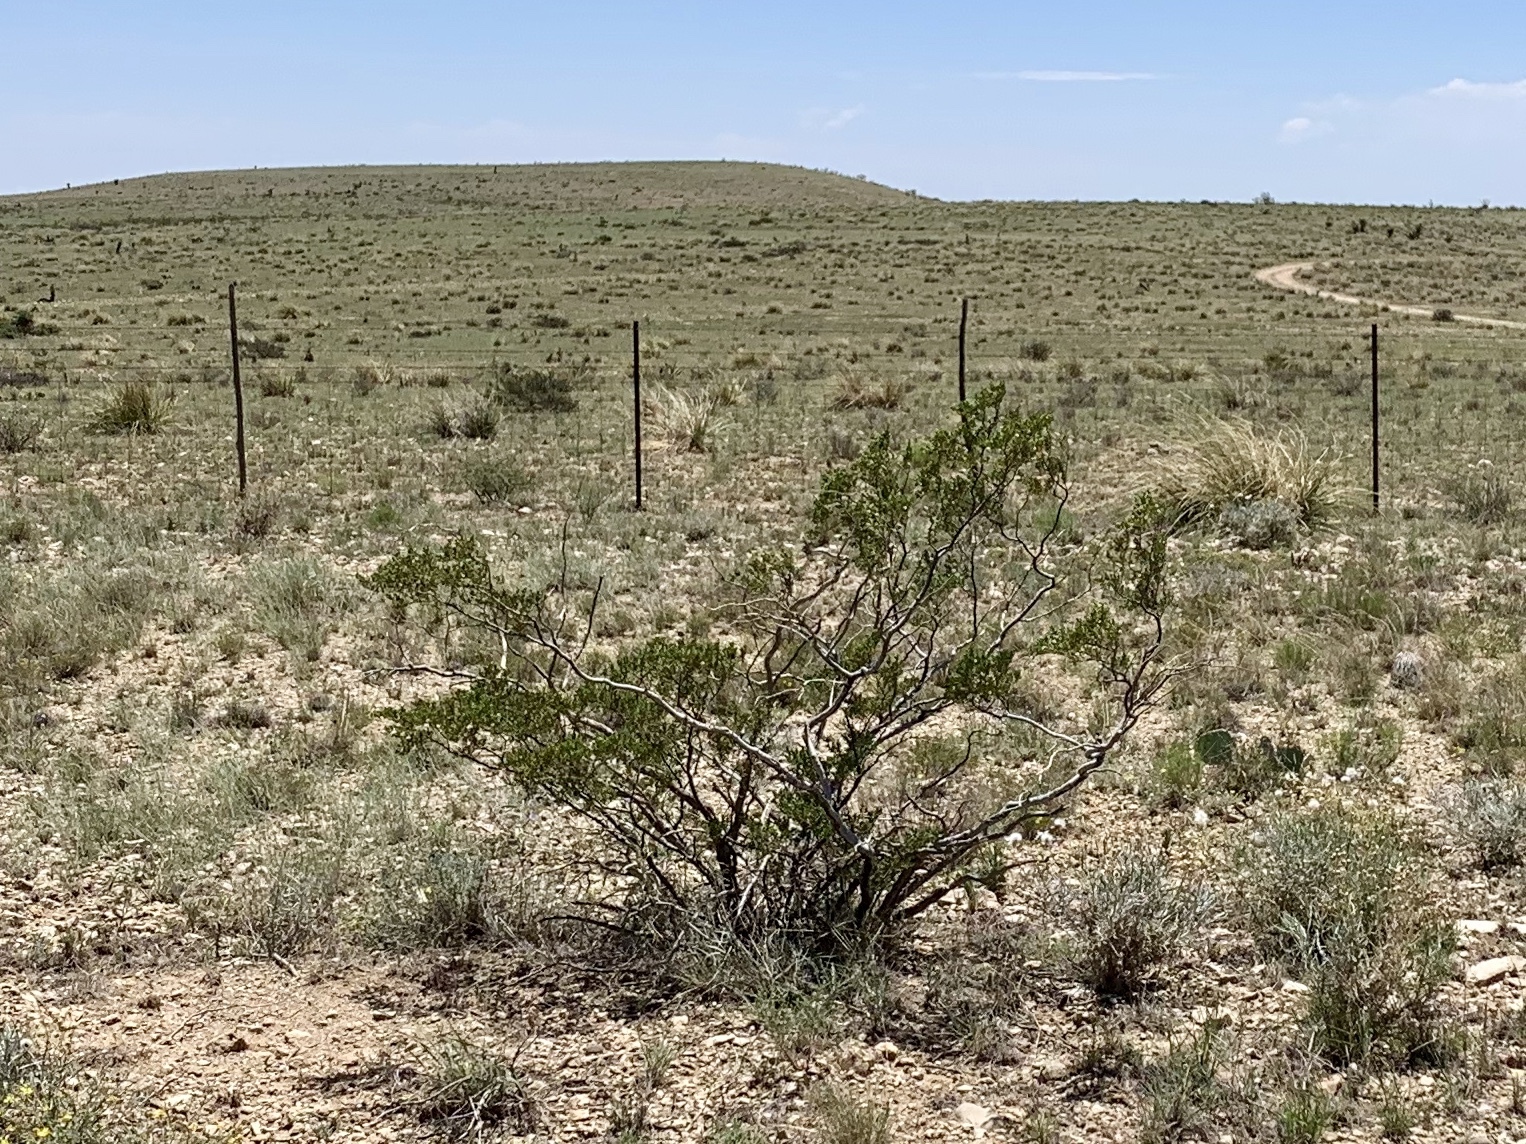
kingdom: Plantae
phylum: Tracheophyta
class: Magnoliopsida
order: Zygophyllales
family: Zygophyllaceae
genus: Larrea
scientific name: Larrea tridentata
